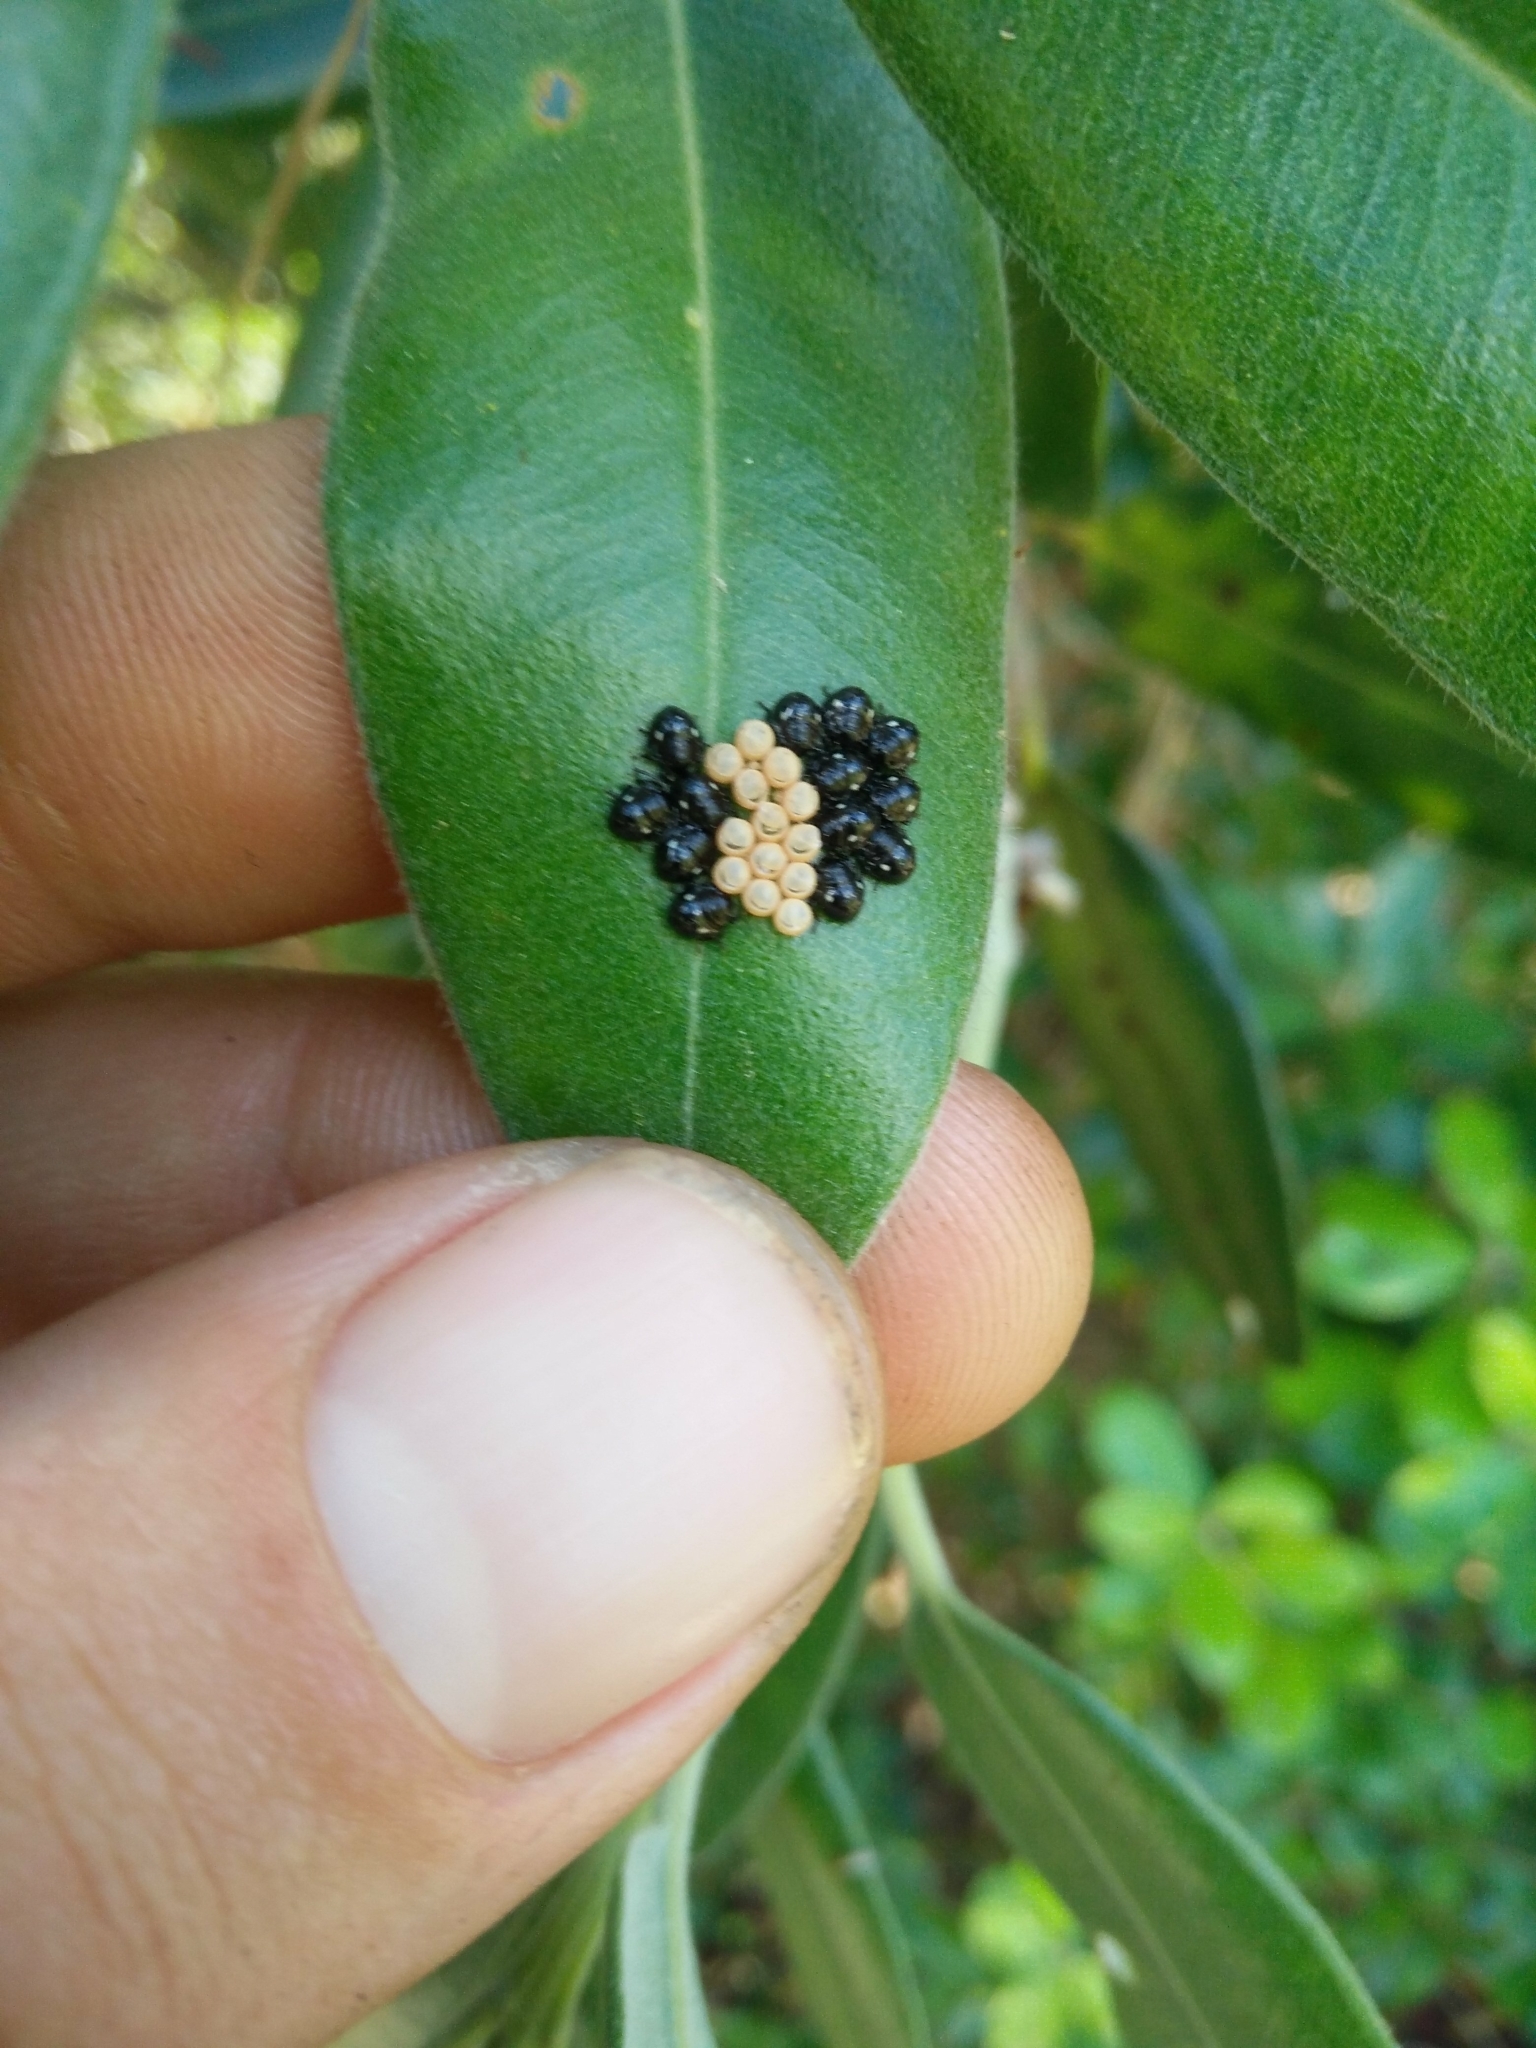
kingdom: Animalia
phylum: Arthropoda
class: Insecta
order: Hemiptera
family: Pentatomidae
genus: Glaucias
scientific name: Glaucias amyota
